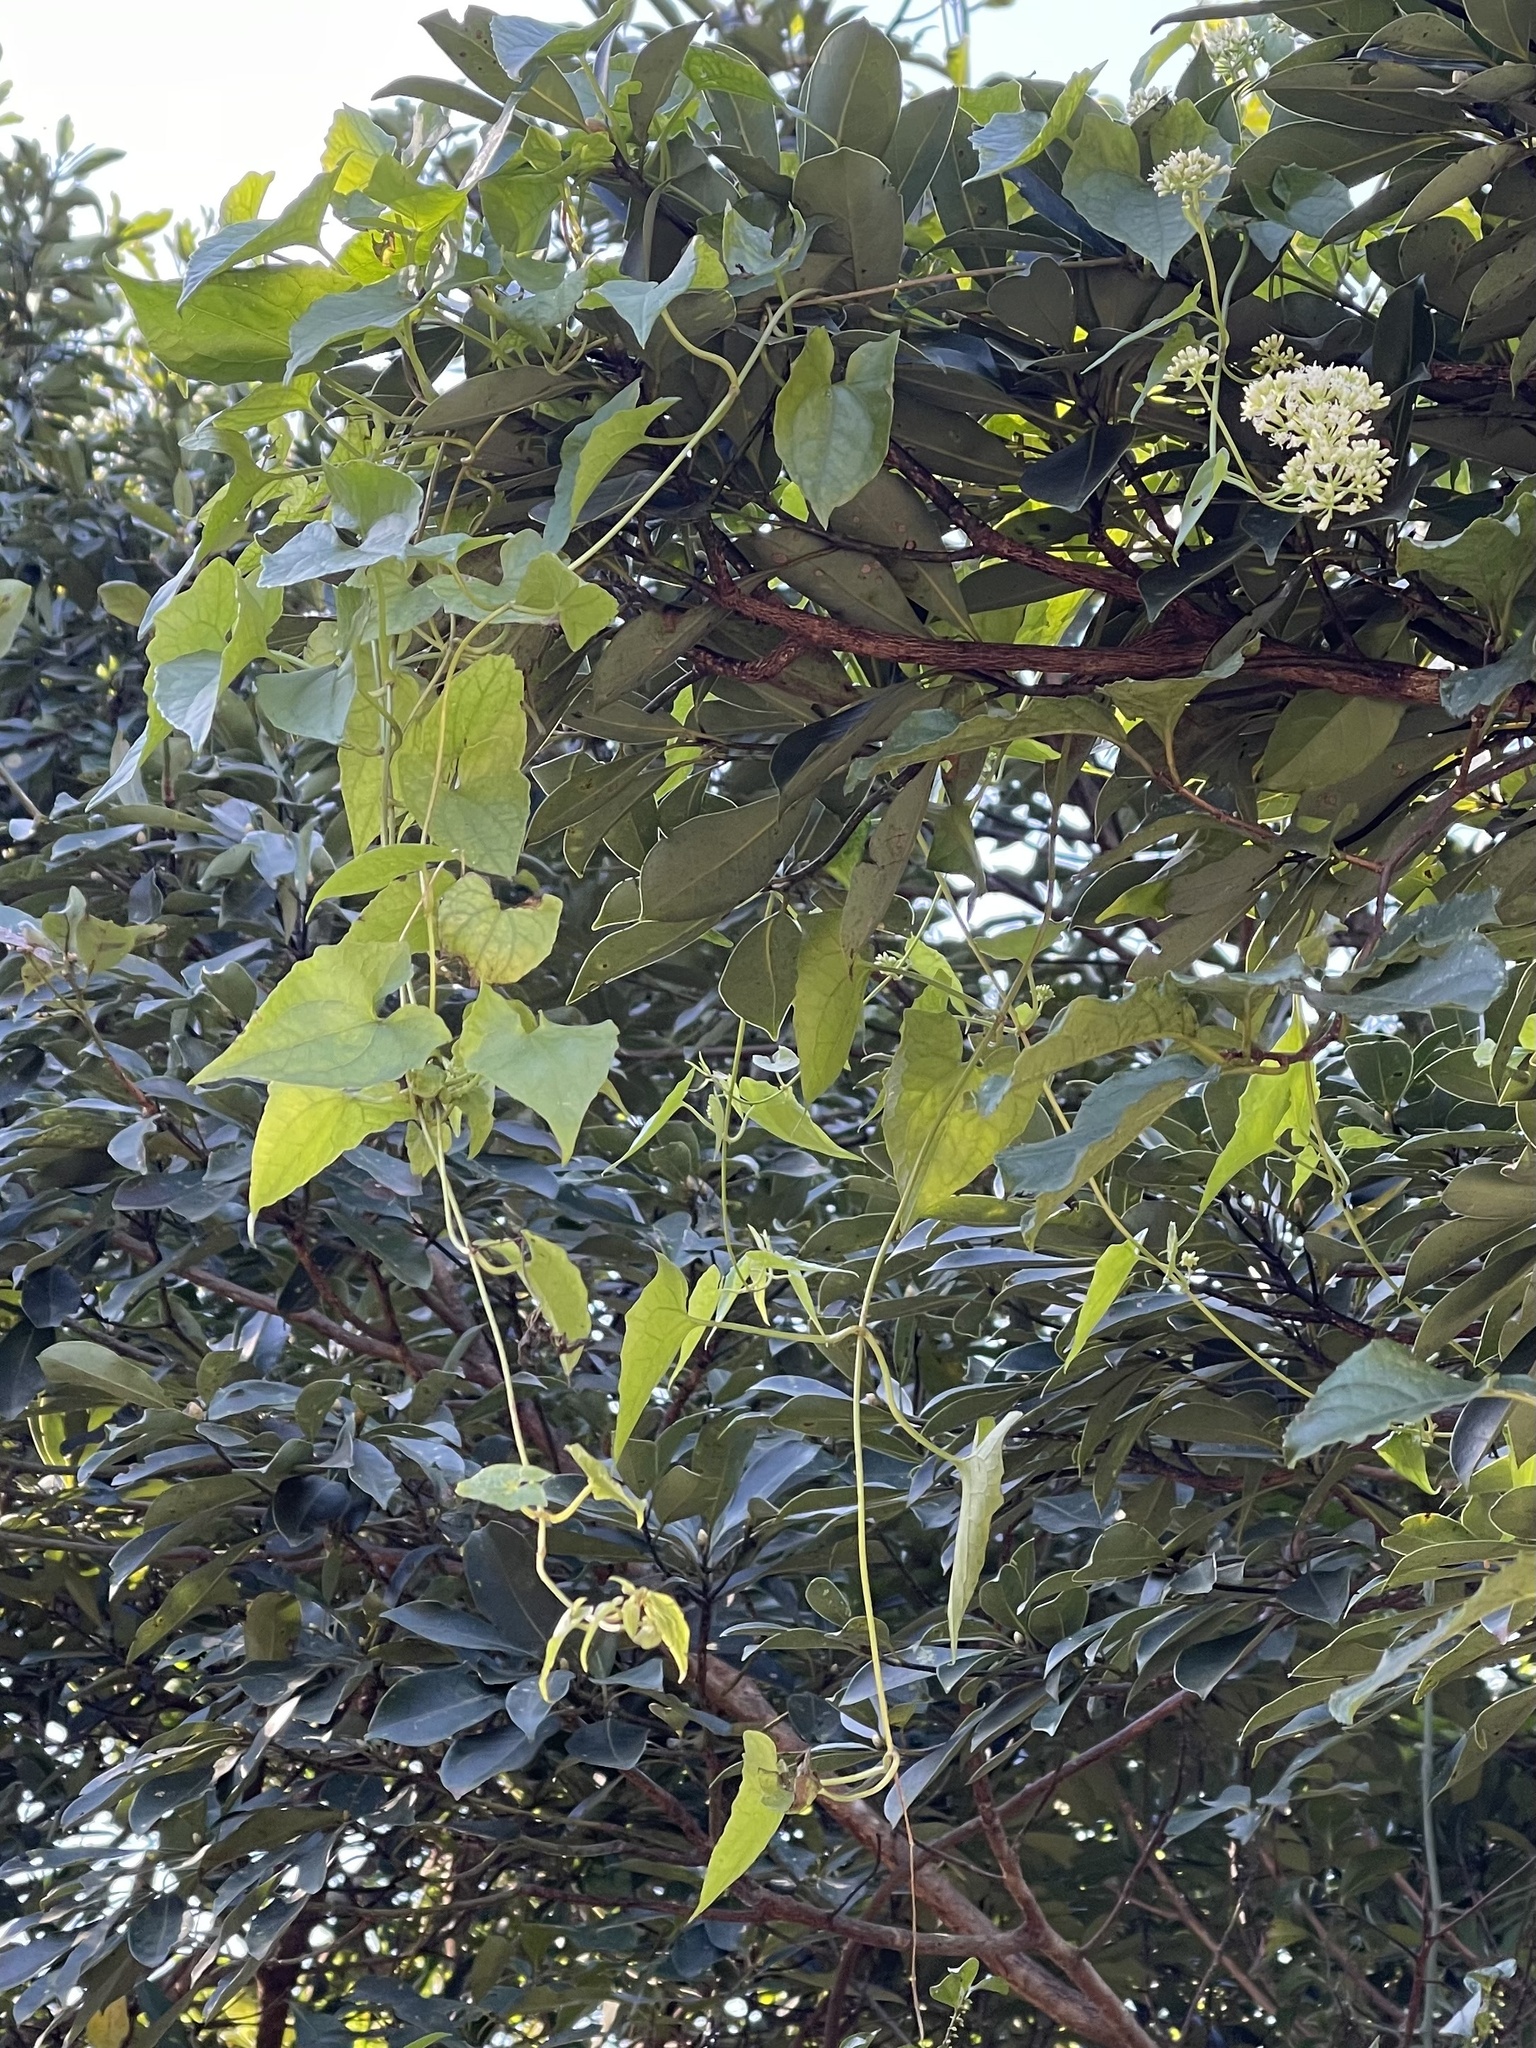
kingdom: Plantae
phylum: Tracheophyta
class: Magnoliopsida
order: Asterales
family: Asteraceae
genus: Mikania
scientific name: Mikania micrantha
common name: Mile-a-minute
